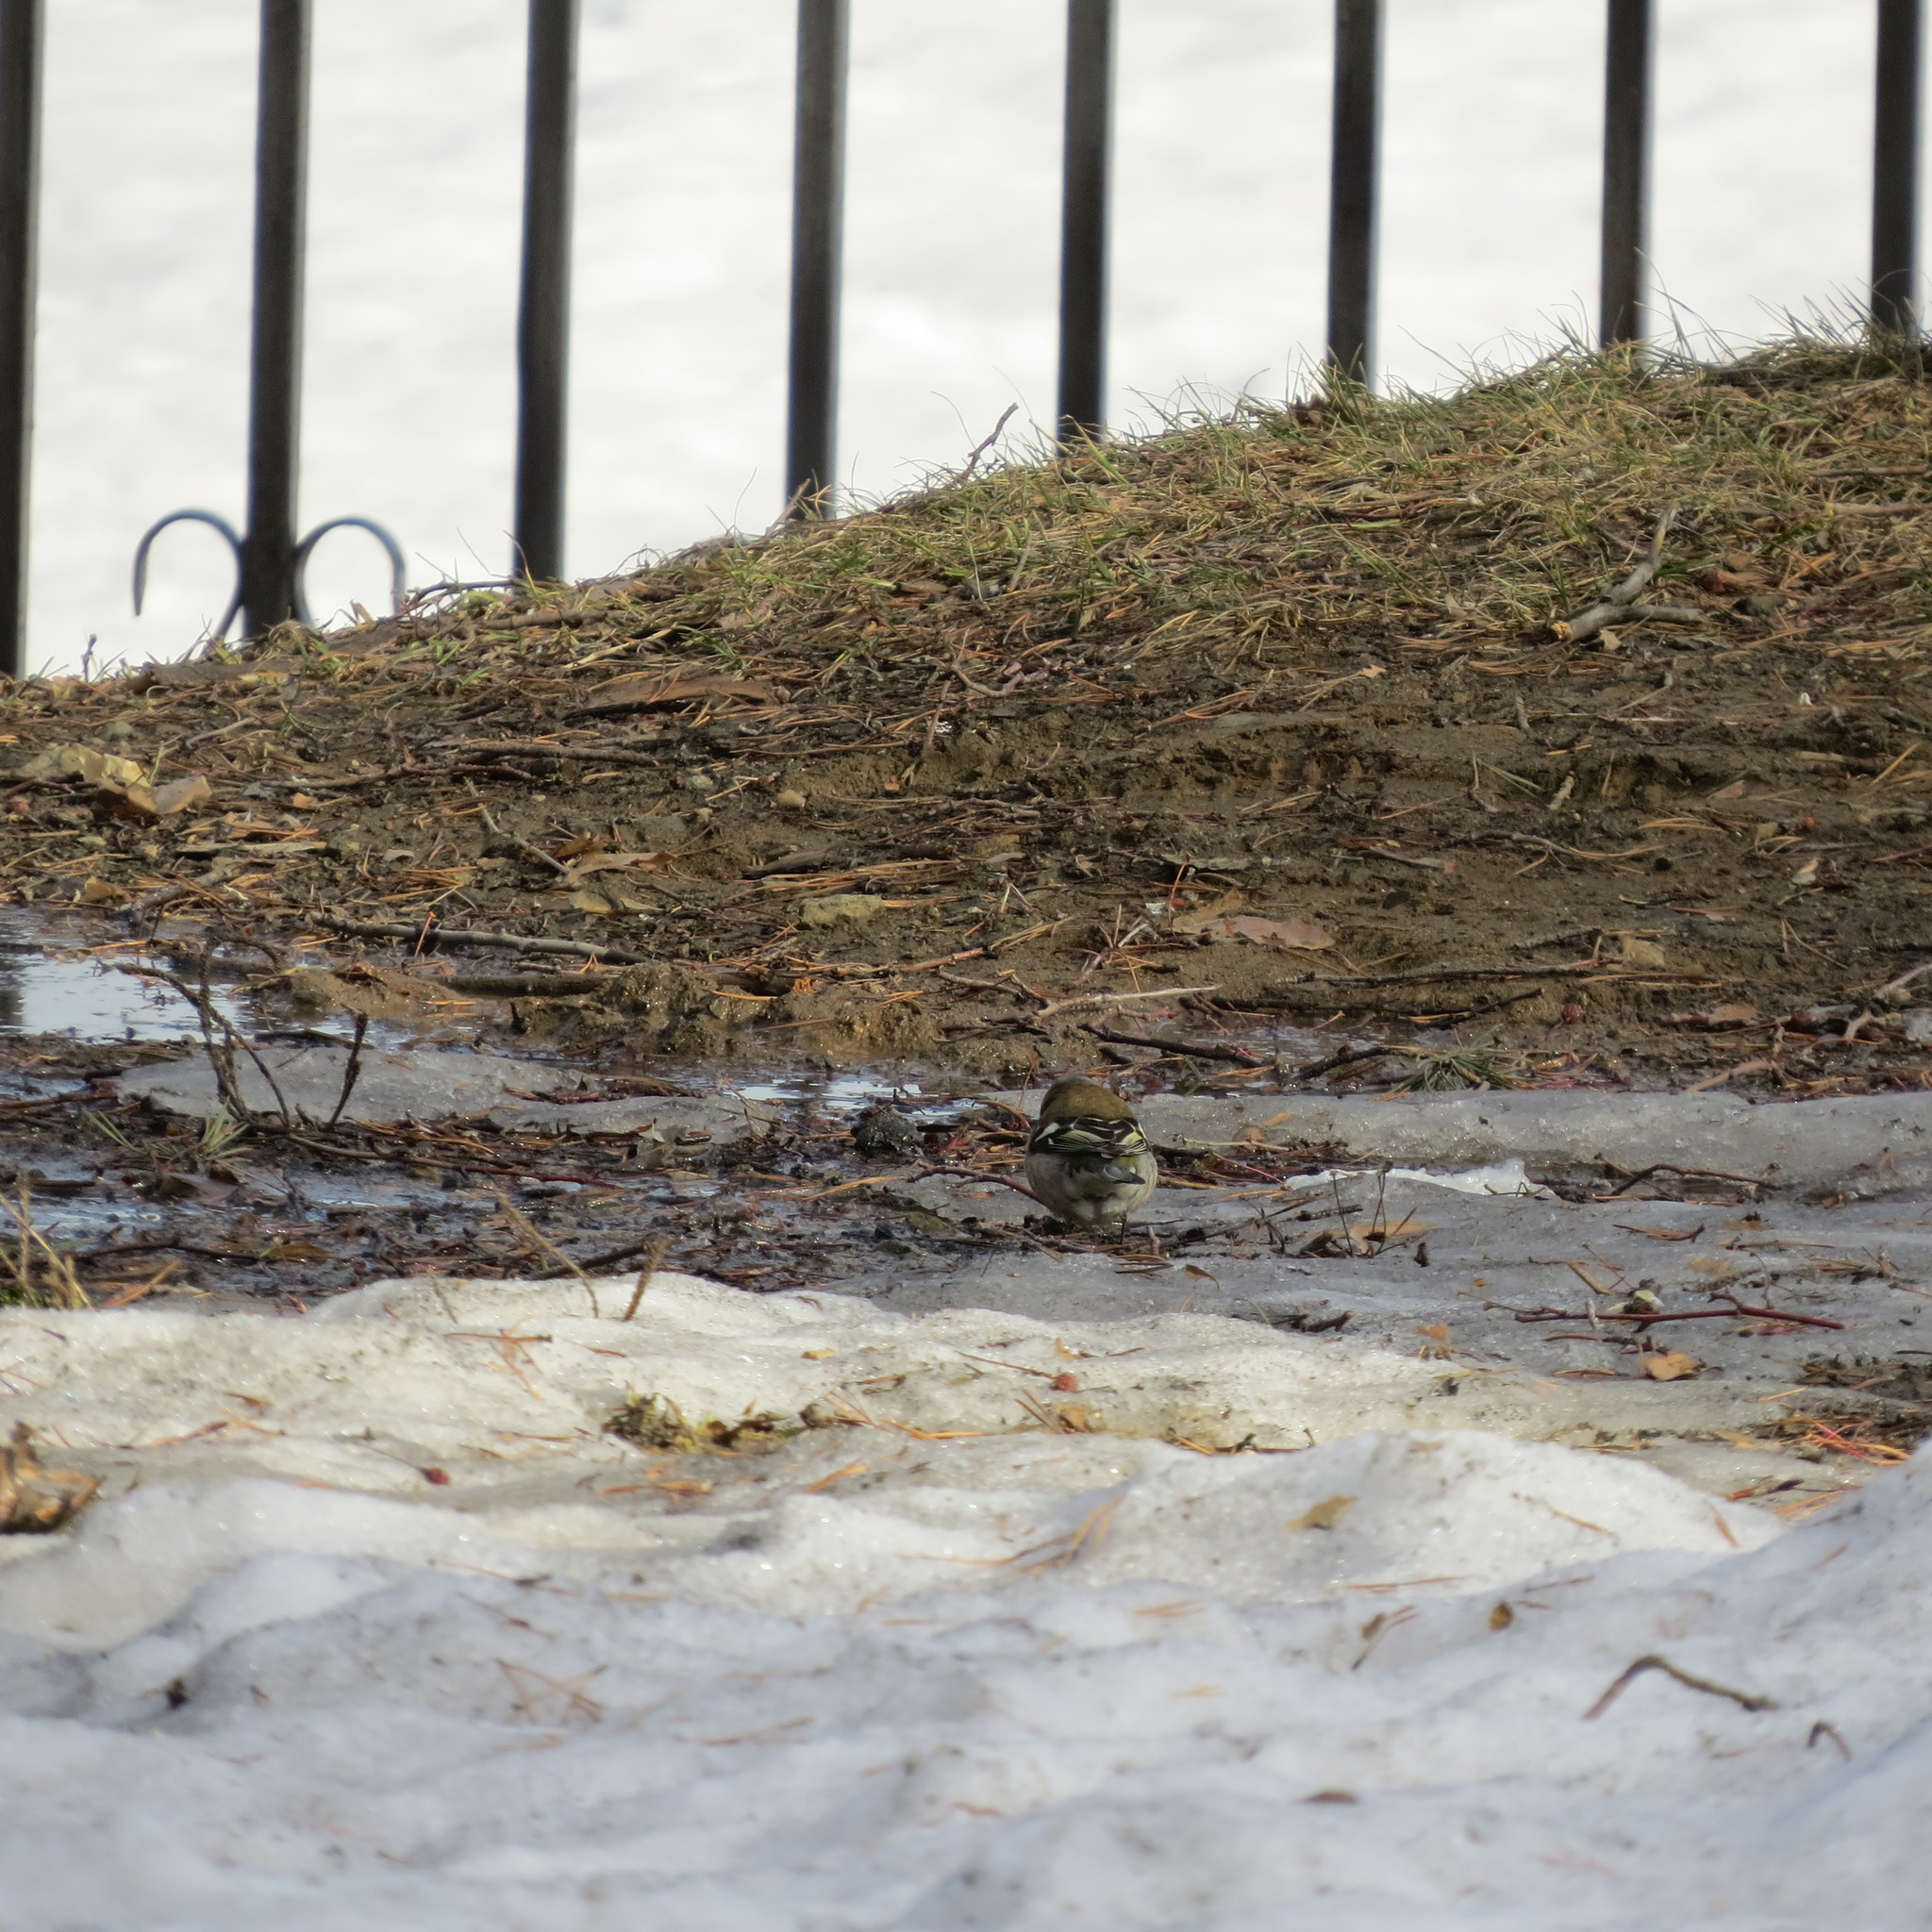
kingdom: Animalia
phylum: Chordata
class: Aves
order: Passeriformes
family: Fringillidae
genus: Fringilla
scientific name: Fringilla coelebs
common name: Common chaffinch
